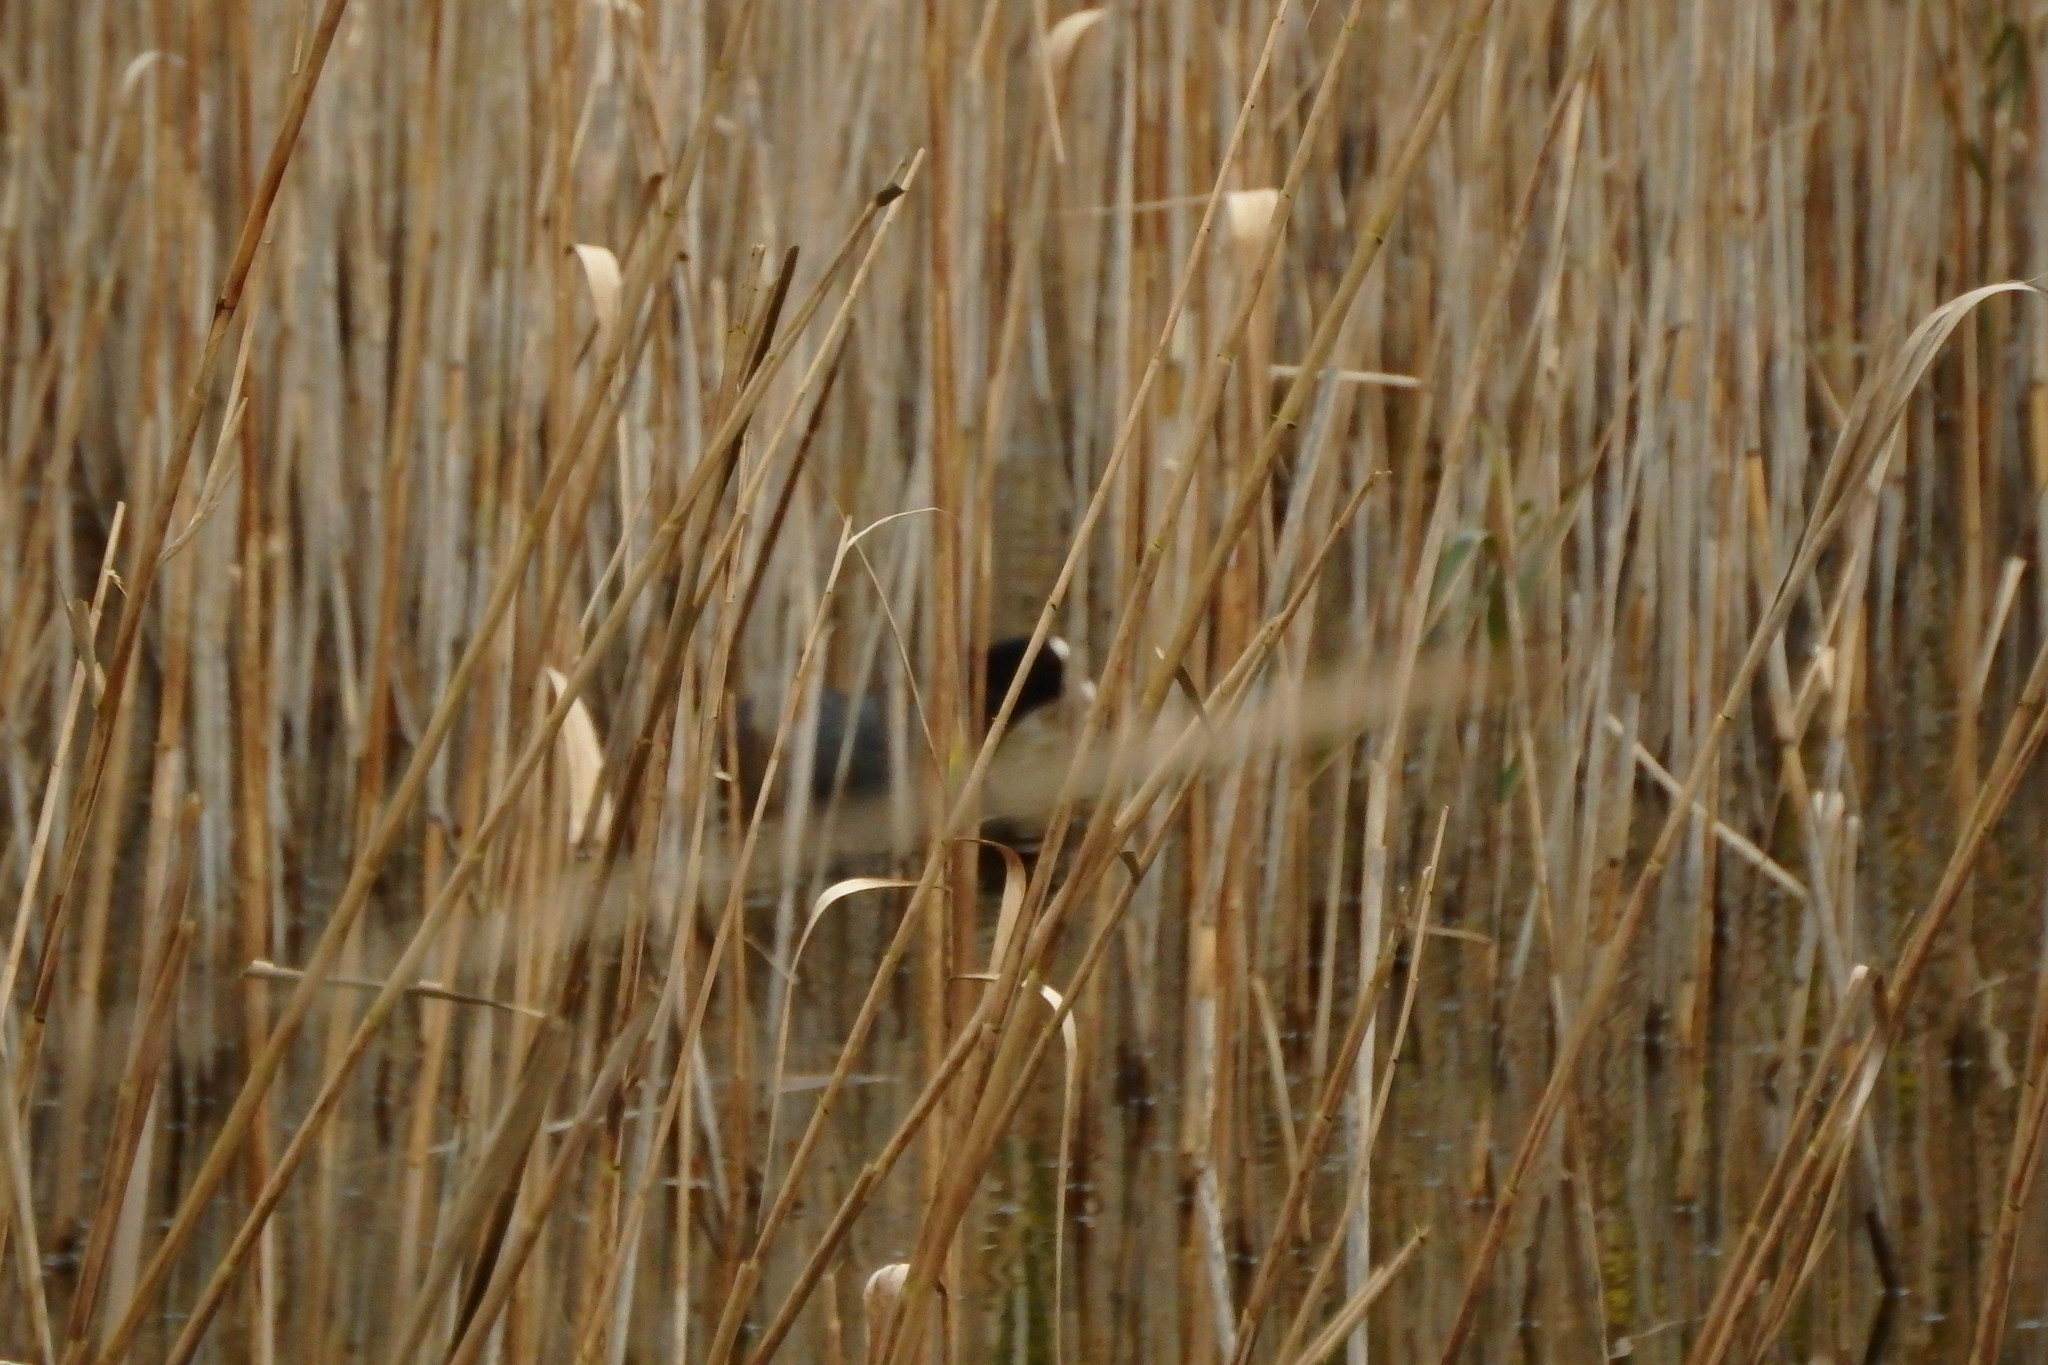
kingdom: Animalia
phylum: Chordata
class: Aves
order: Gruiformes
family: Rallidae
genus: Fulica
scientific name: Fulica atra
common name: Eurasian coot
